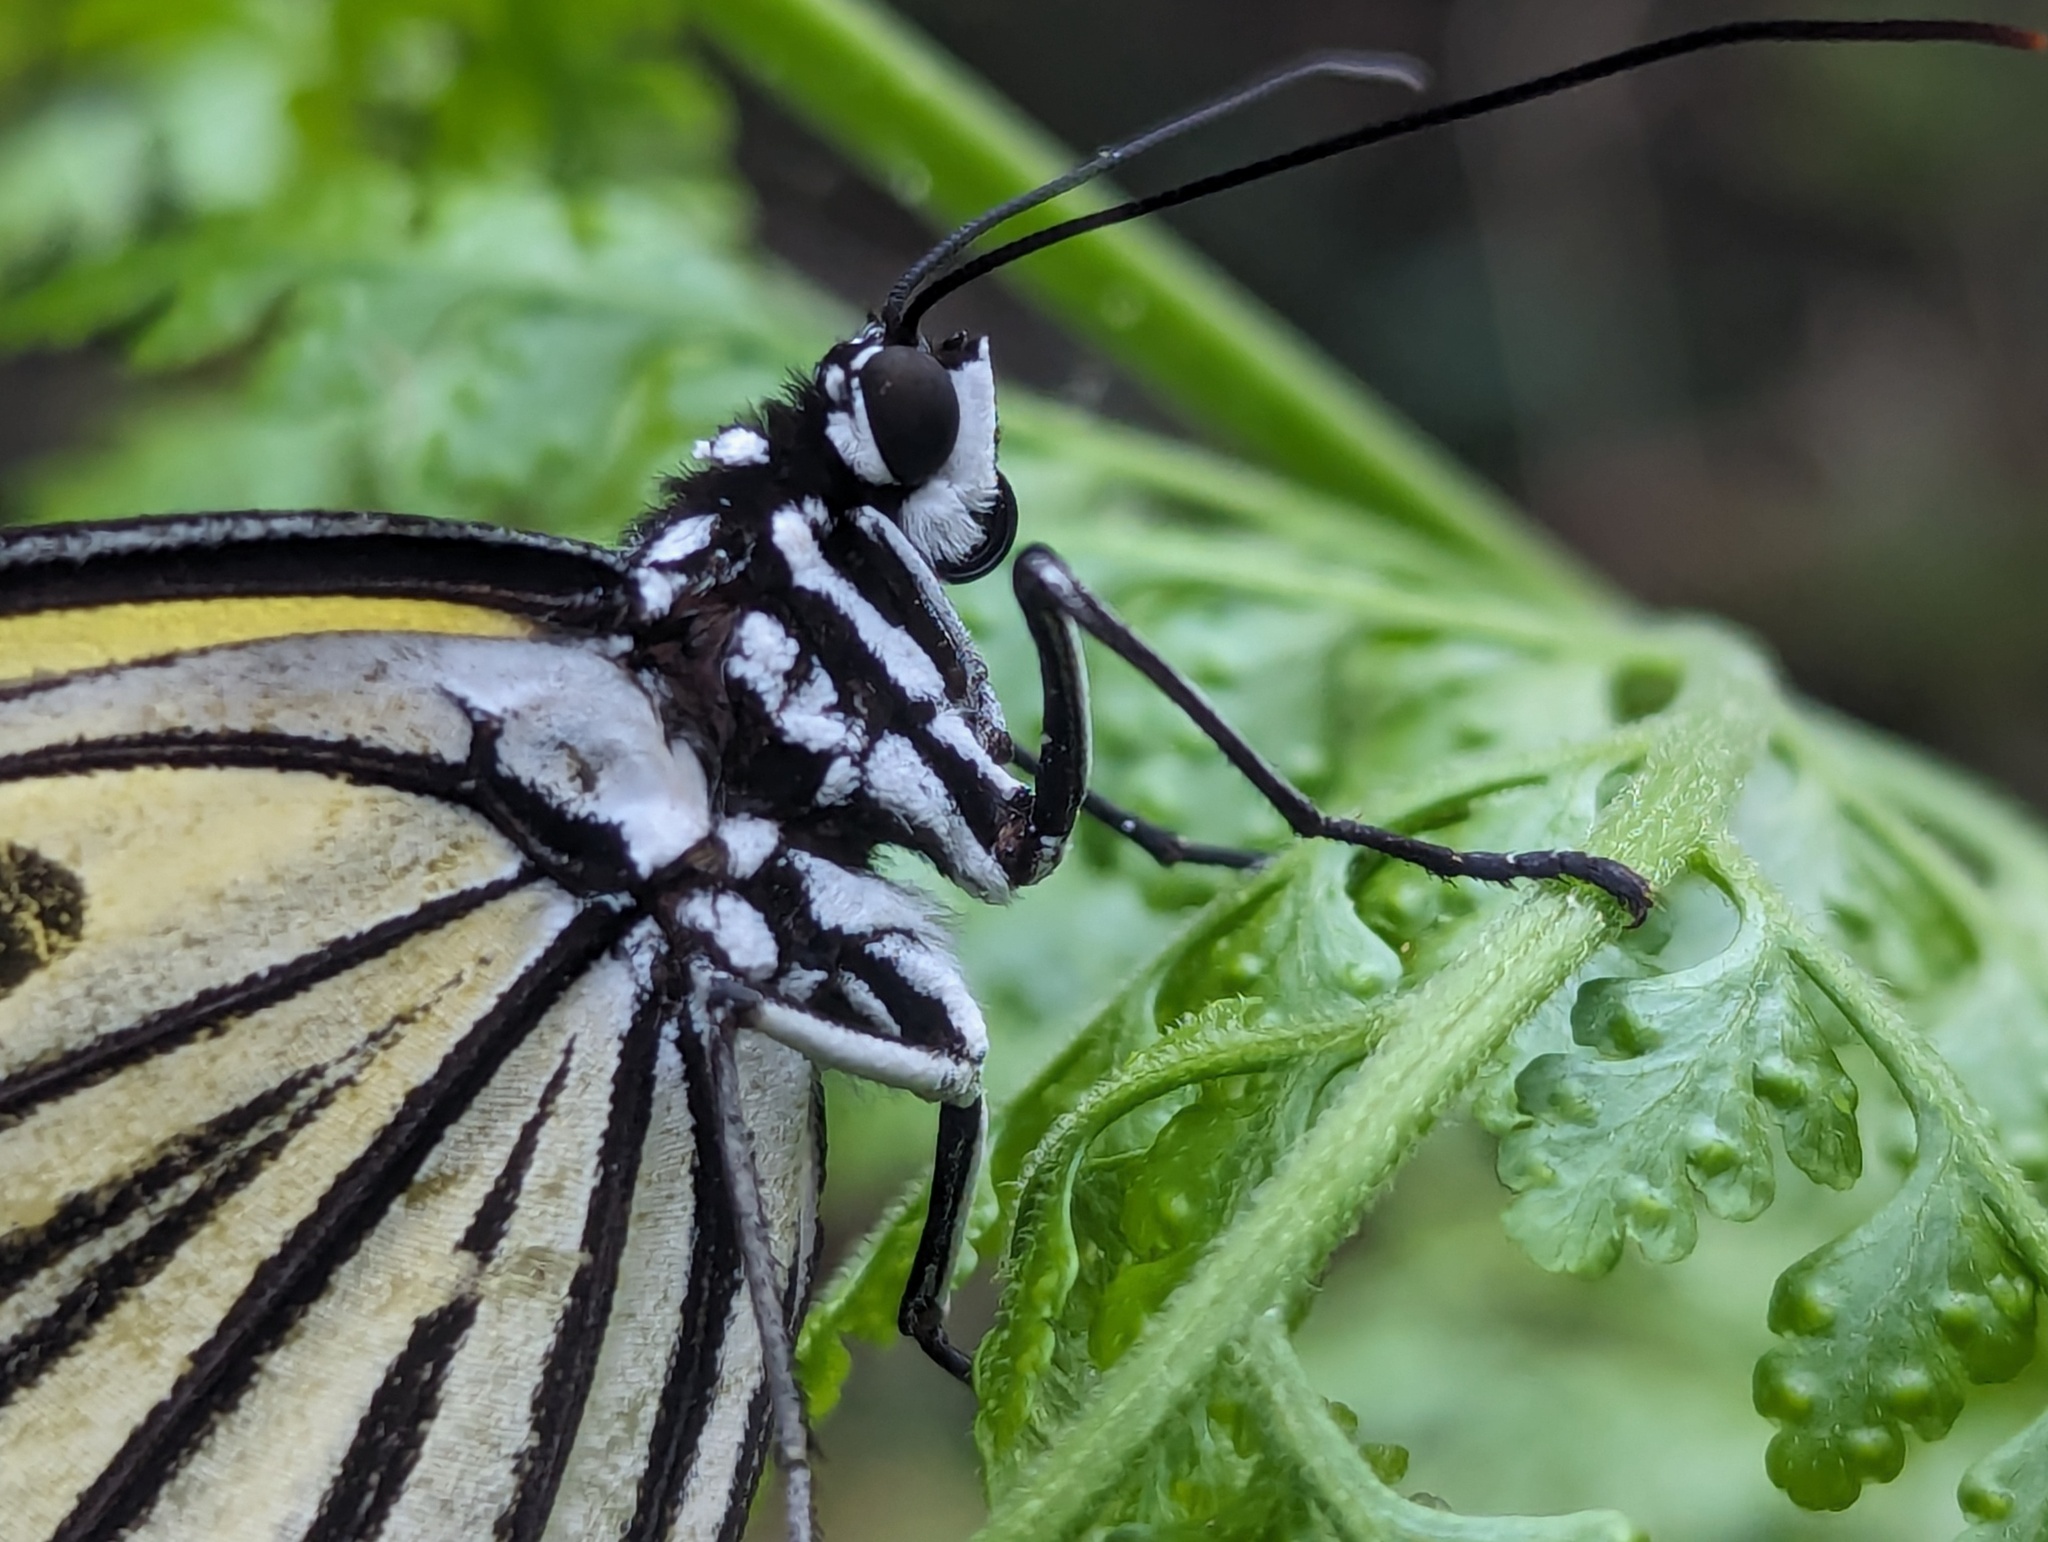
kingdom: Animalia
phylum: Arthropoda
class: Insecta
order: Lepidoptera
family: Nymphalidae
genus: Idea
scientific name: Idea leuconoe
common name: Rice paper butterfly
